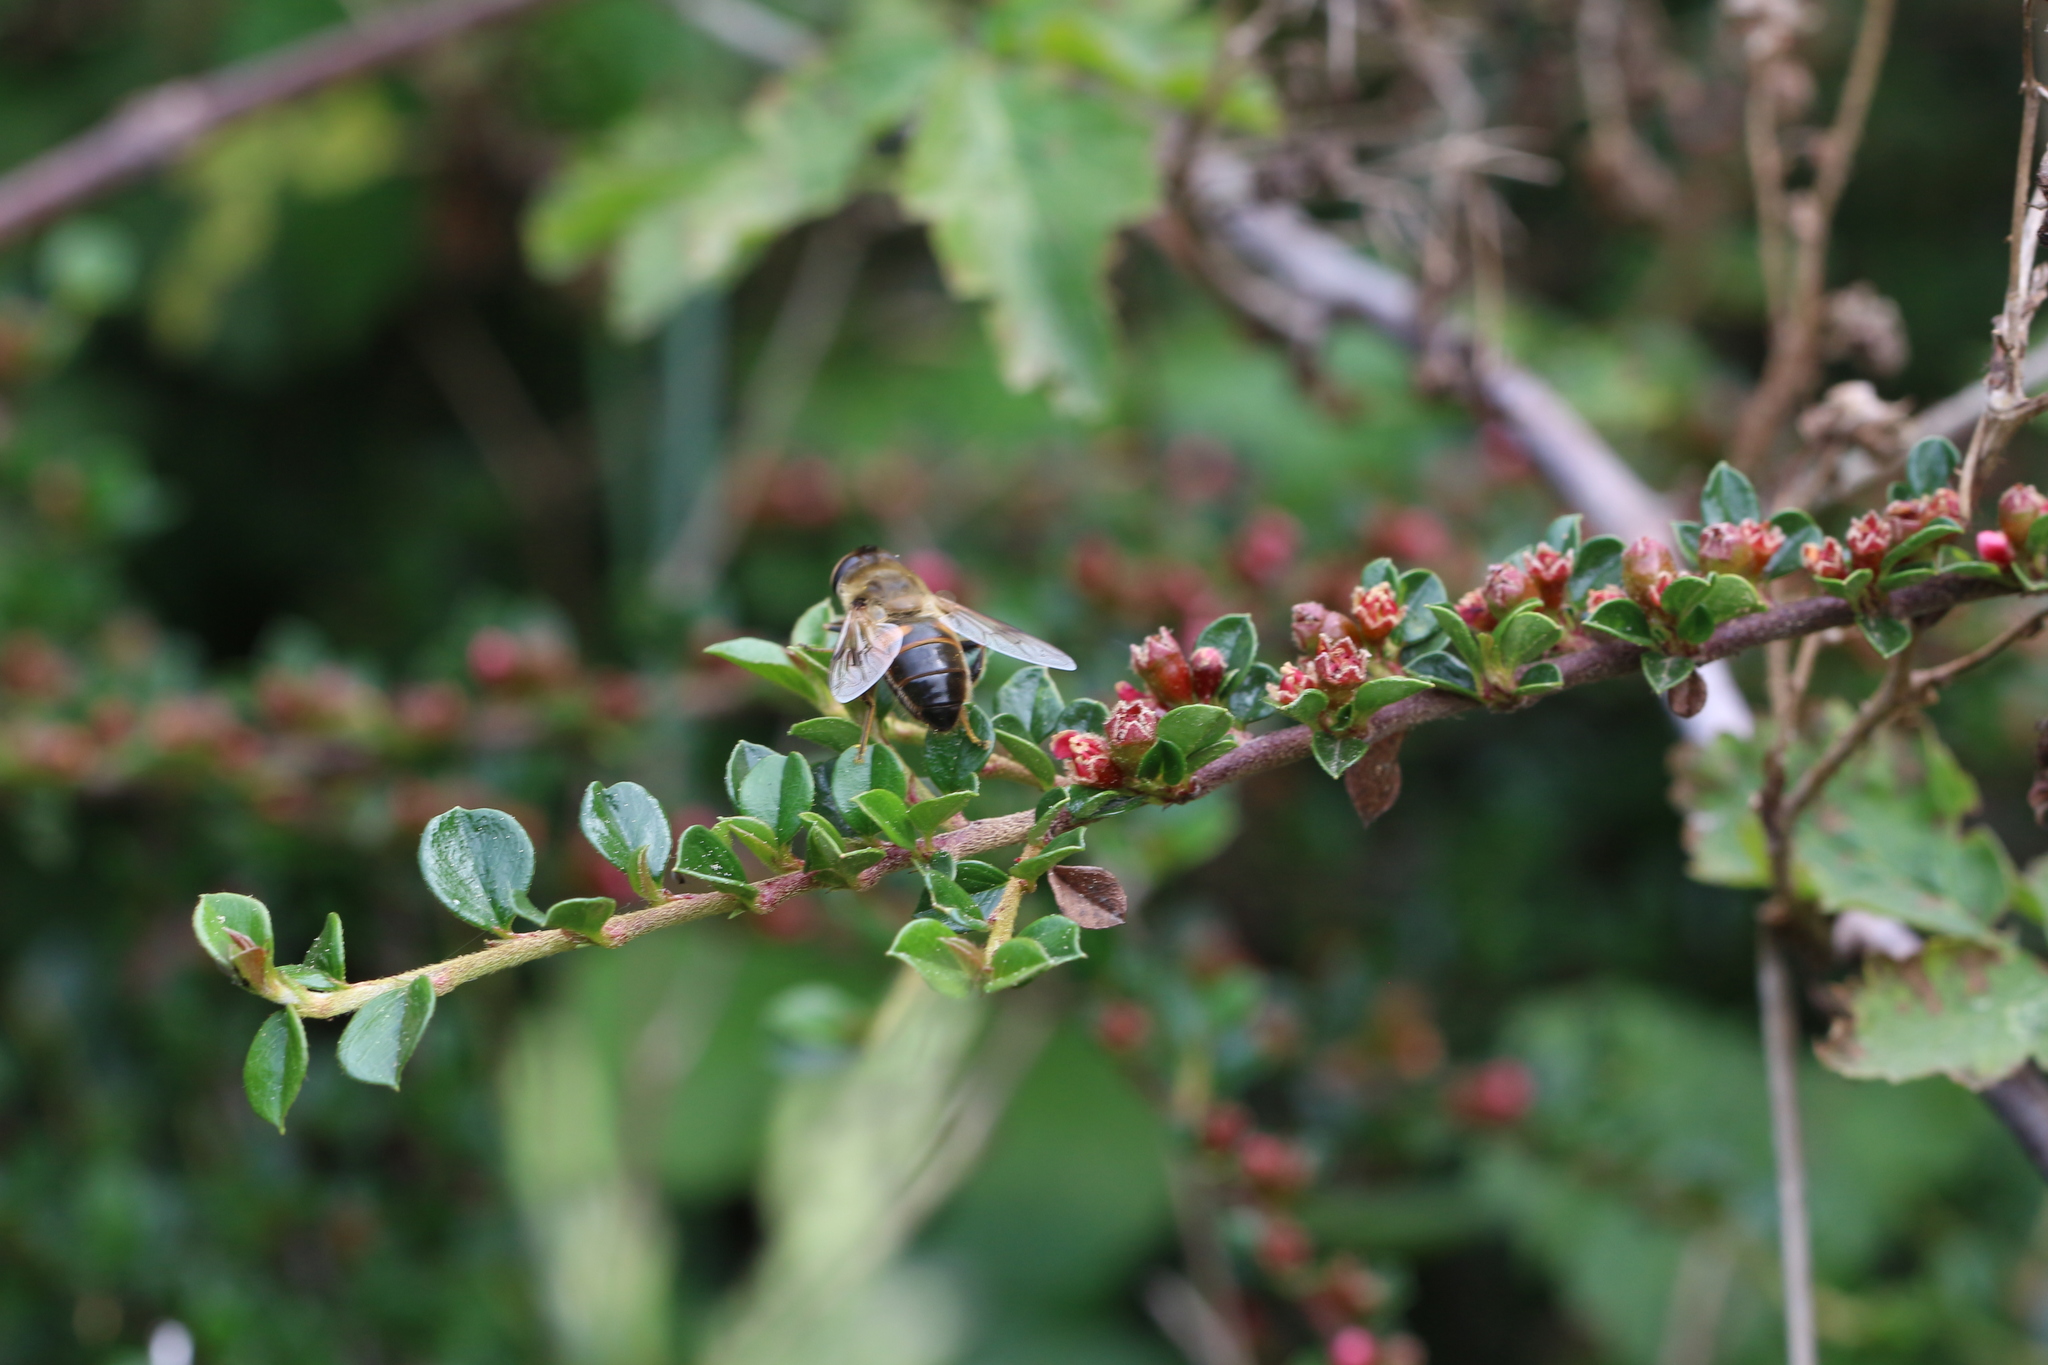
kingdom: Animalia
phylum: Arthropoda
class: Insecta
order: Diptera
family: Syrphidae
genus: Eristalis
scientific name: Eristalis tenax
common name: Drone fly
